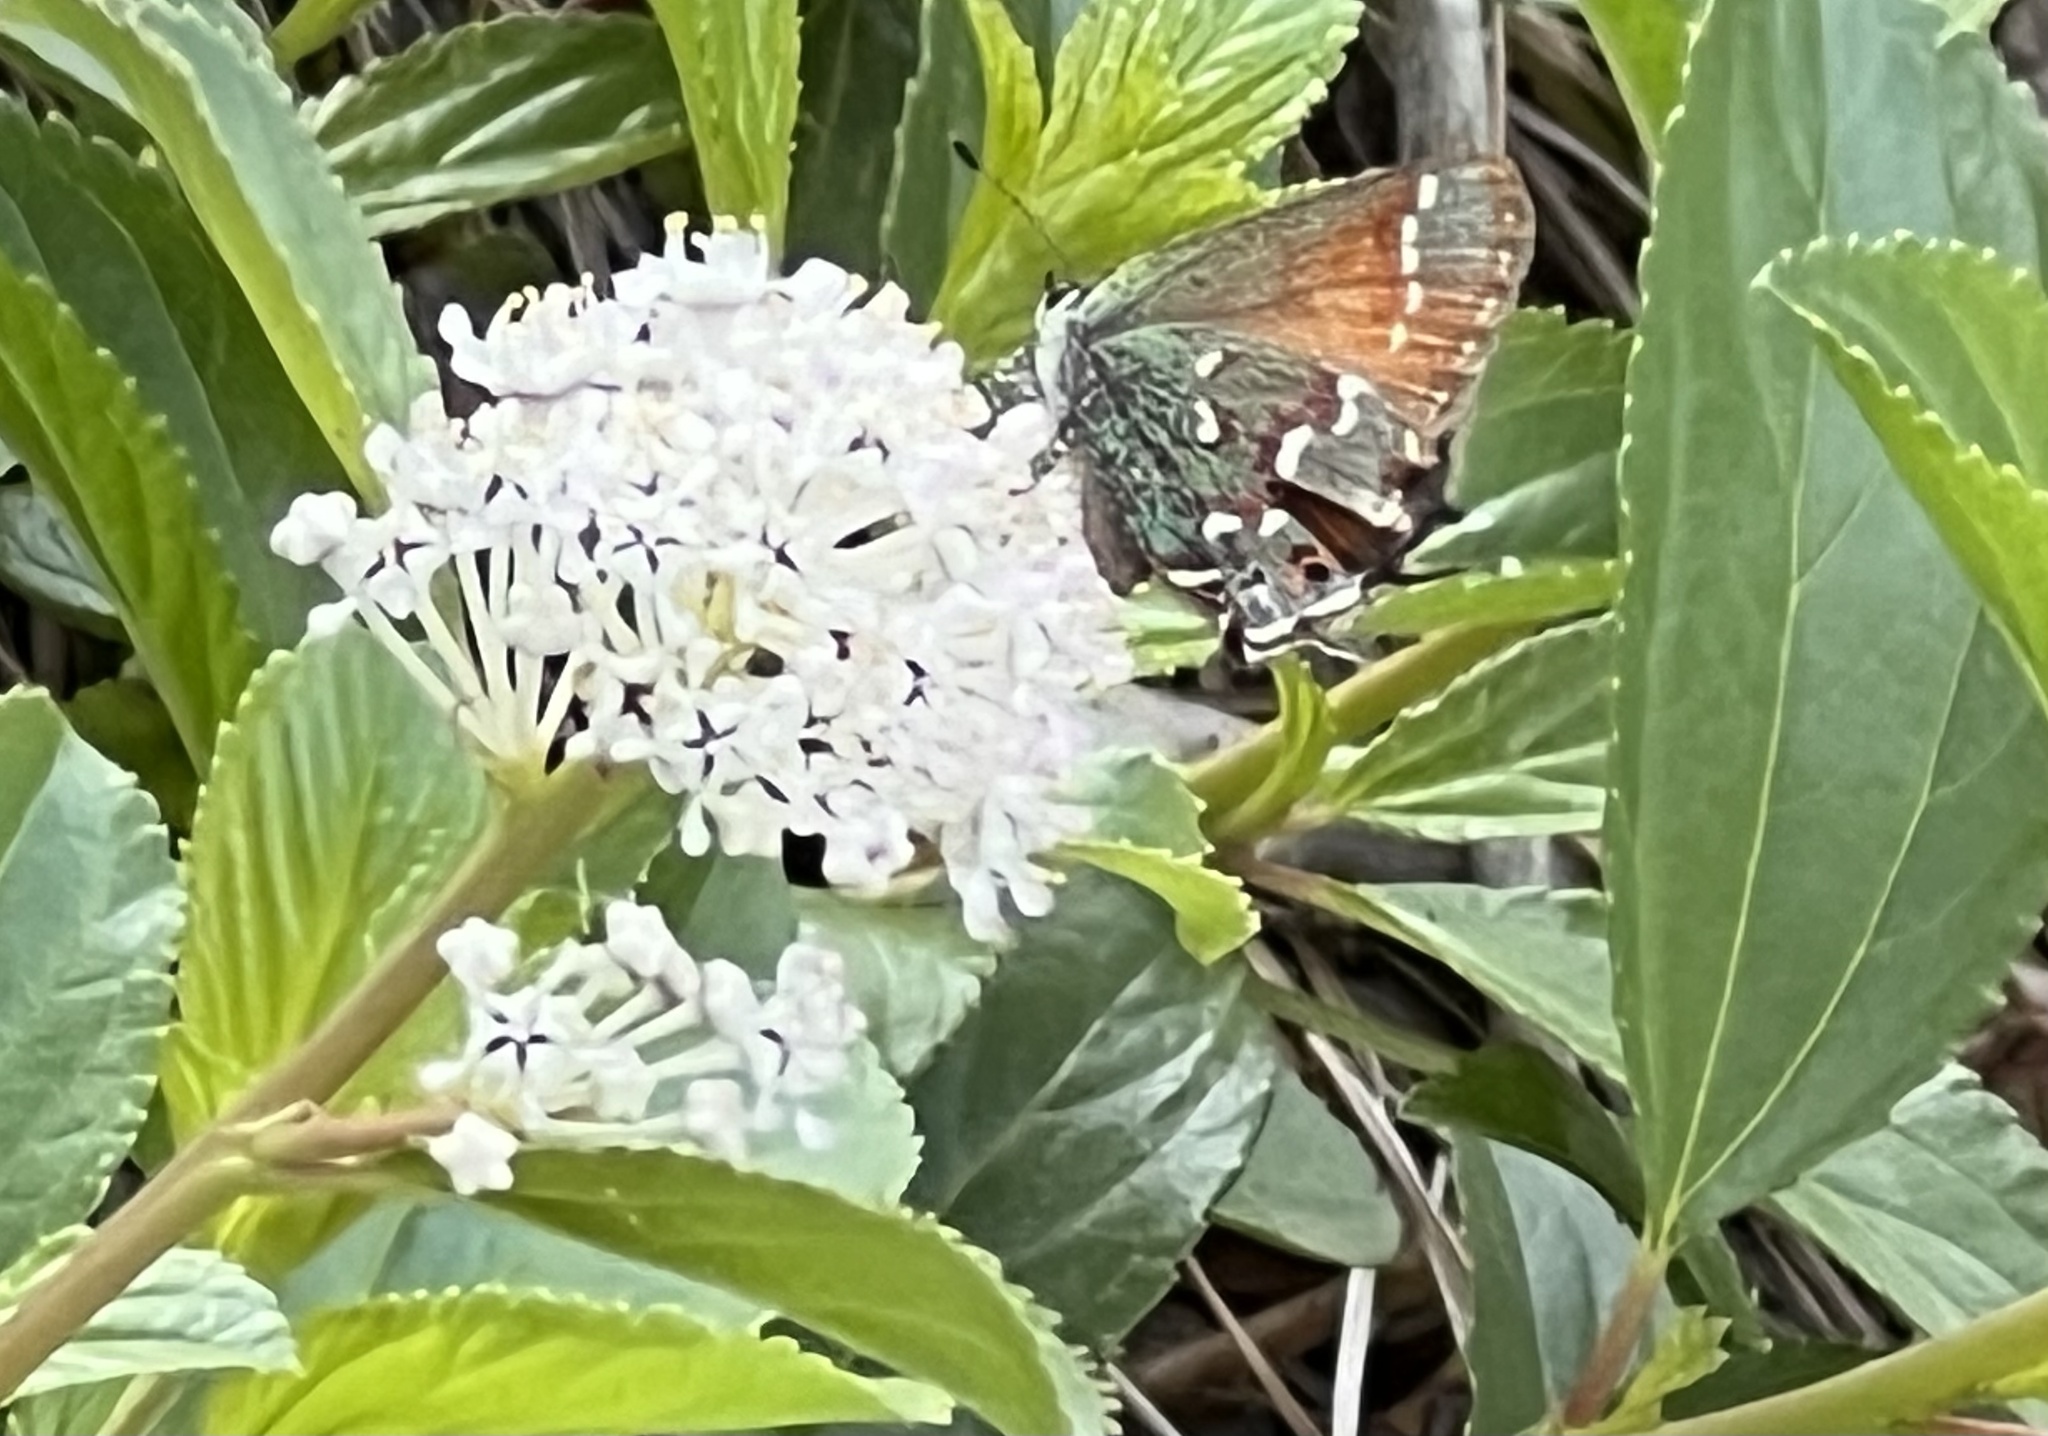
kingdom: Plantae
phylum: Tracheophyta
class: Magnoliopsida
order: Rosales
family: Rhamnaceae
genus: Ceanothus
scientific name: Ceanothus herbaceus
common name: Inland ceanothus
